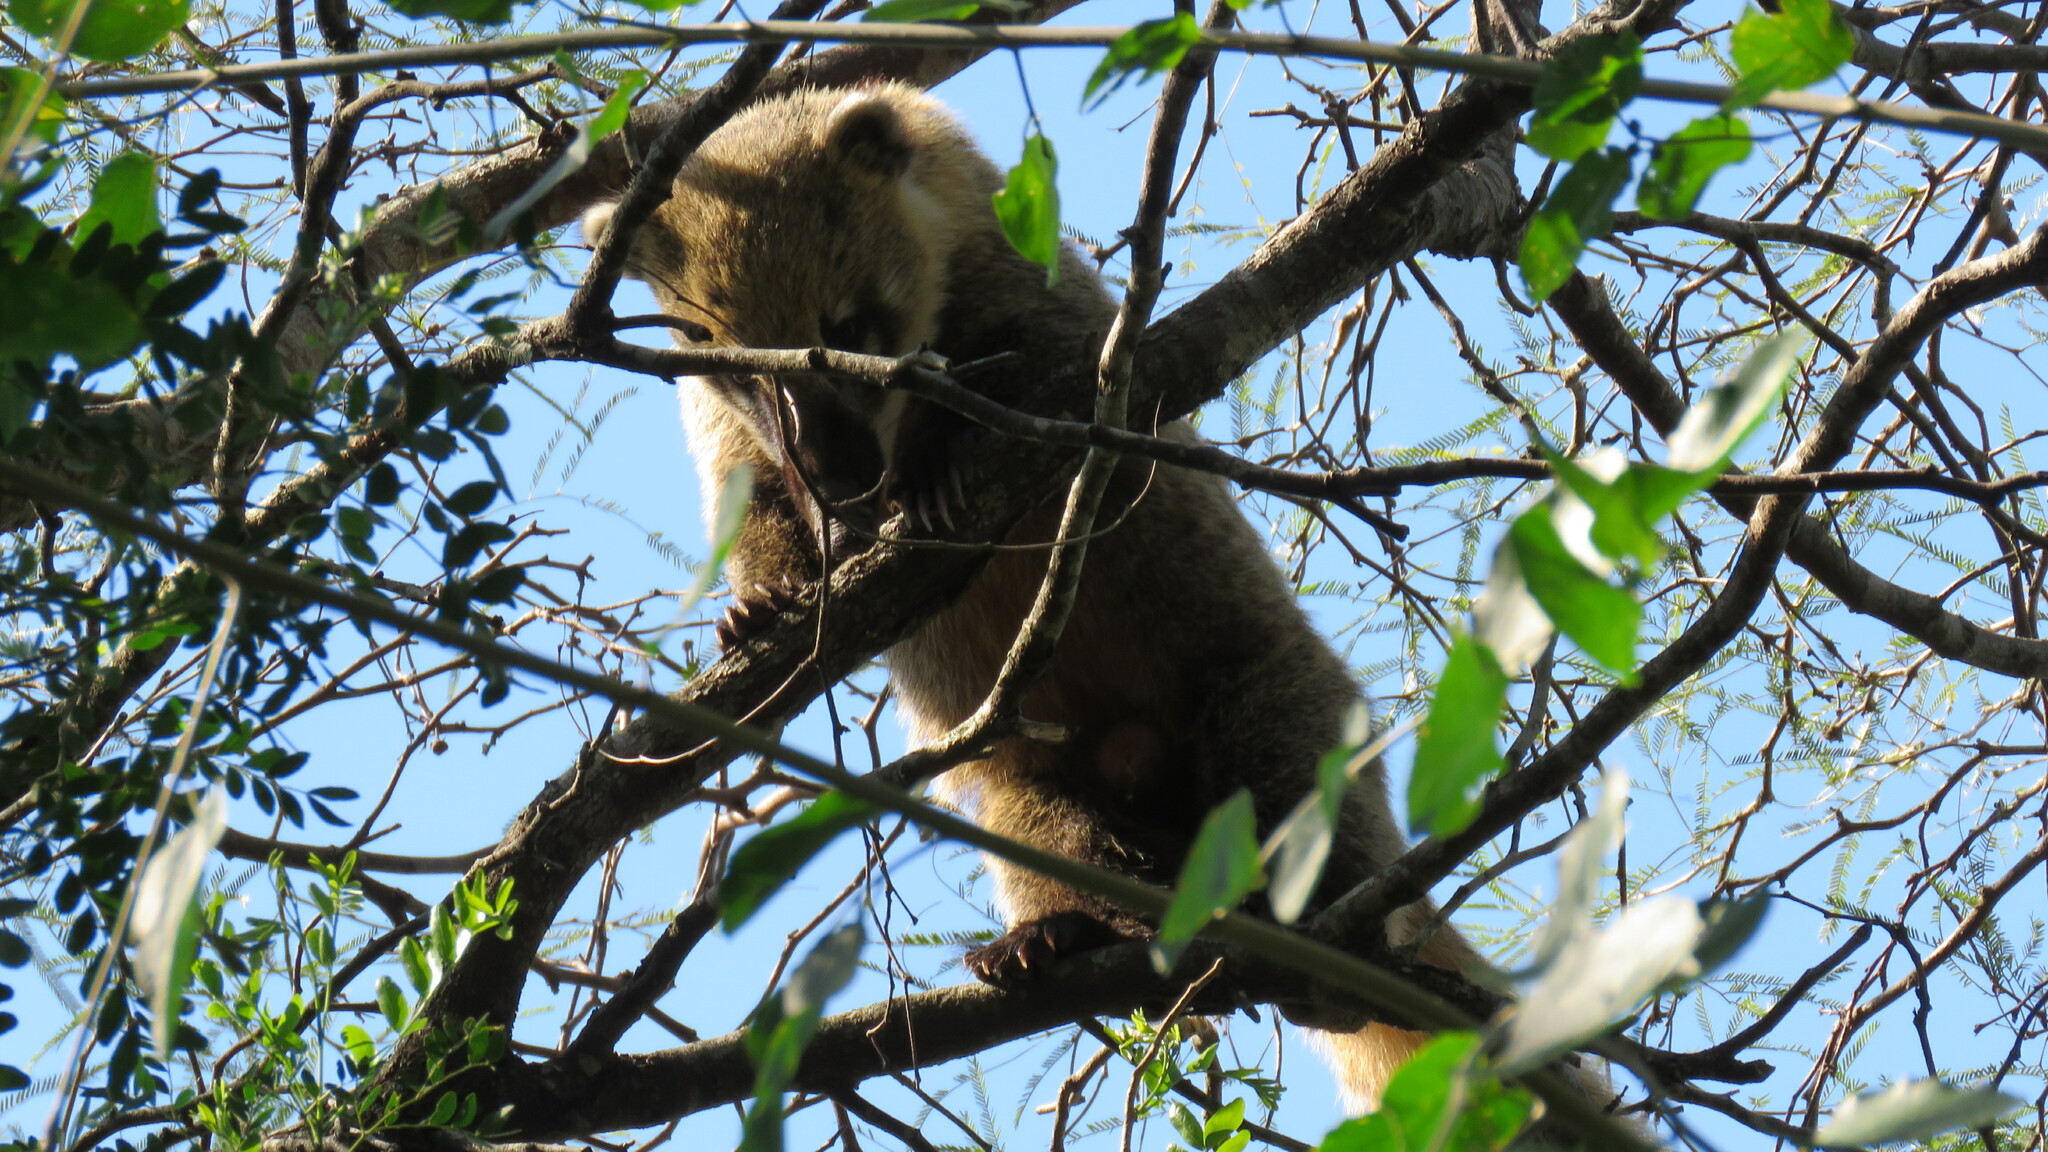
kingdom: Animalia
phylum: Chordata
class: Mammalia
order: Carnivora
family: Procyonidae
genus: Nasua
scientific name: Nasua nasua
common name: South american coati
